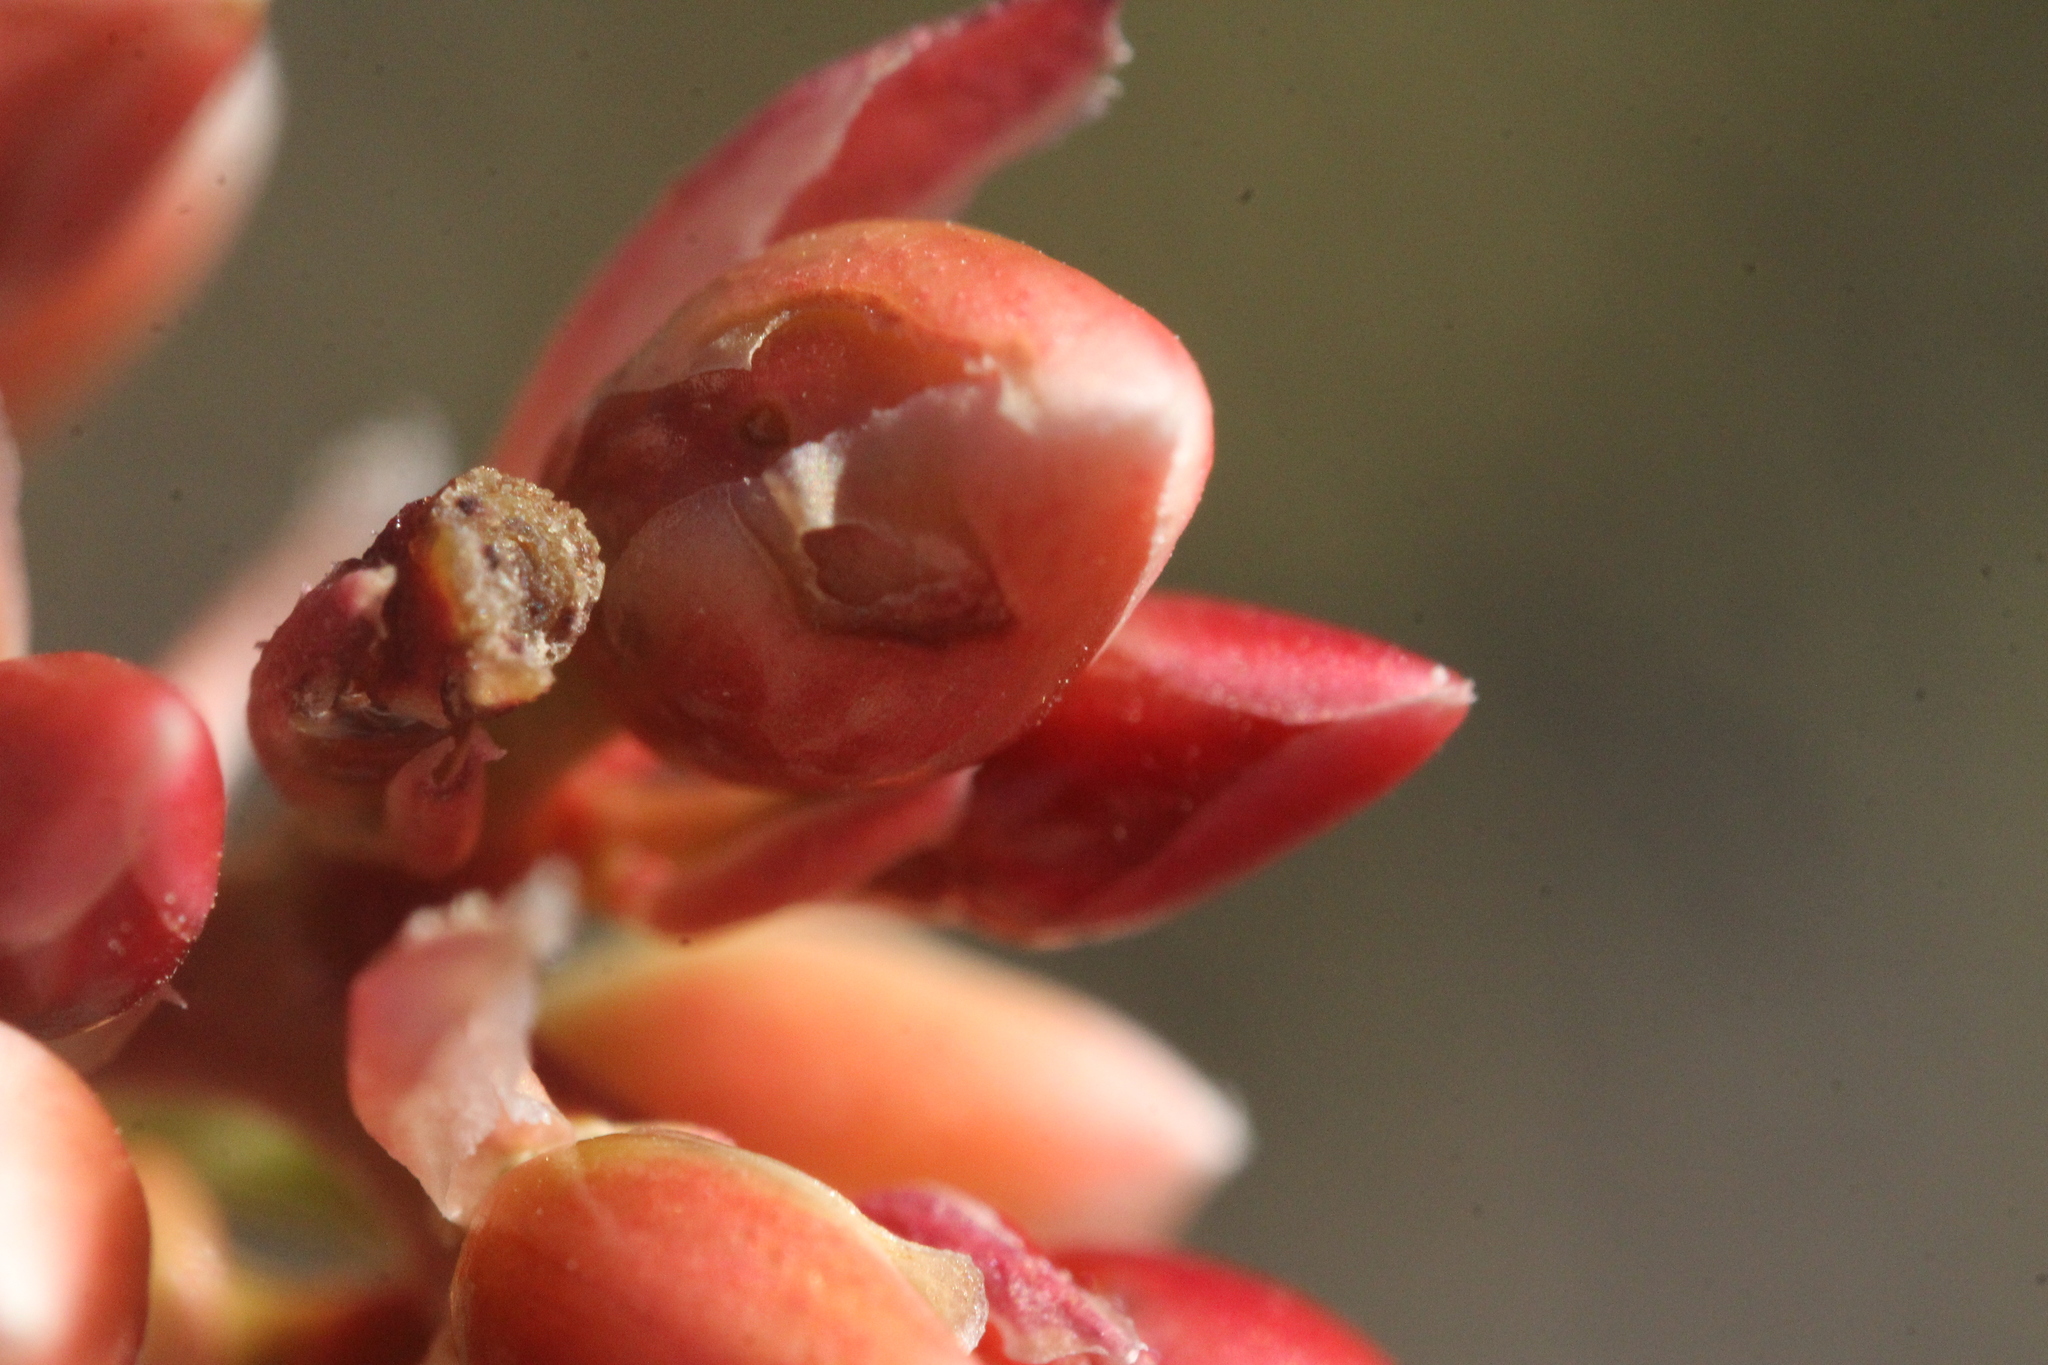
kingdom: Plantae
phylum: Tracheophyta
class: Magnoliopsida
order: Ericales
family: Fouquieriaceae
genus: Fouquieria
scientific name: Fouquieria splendens
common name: Vine-cactus
